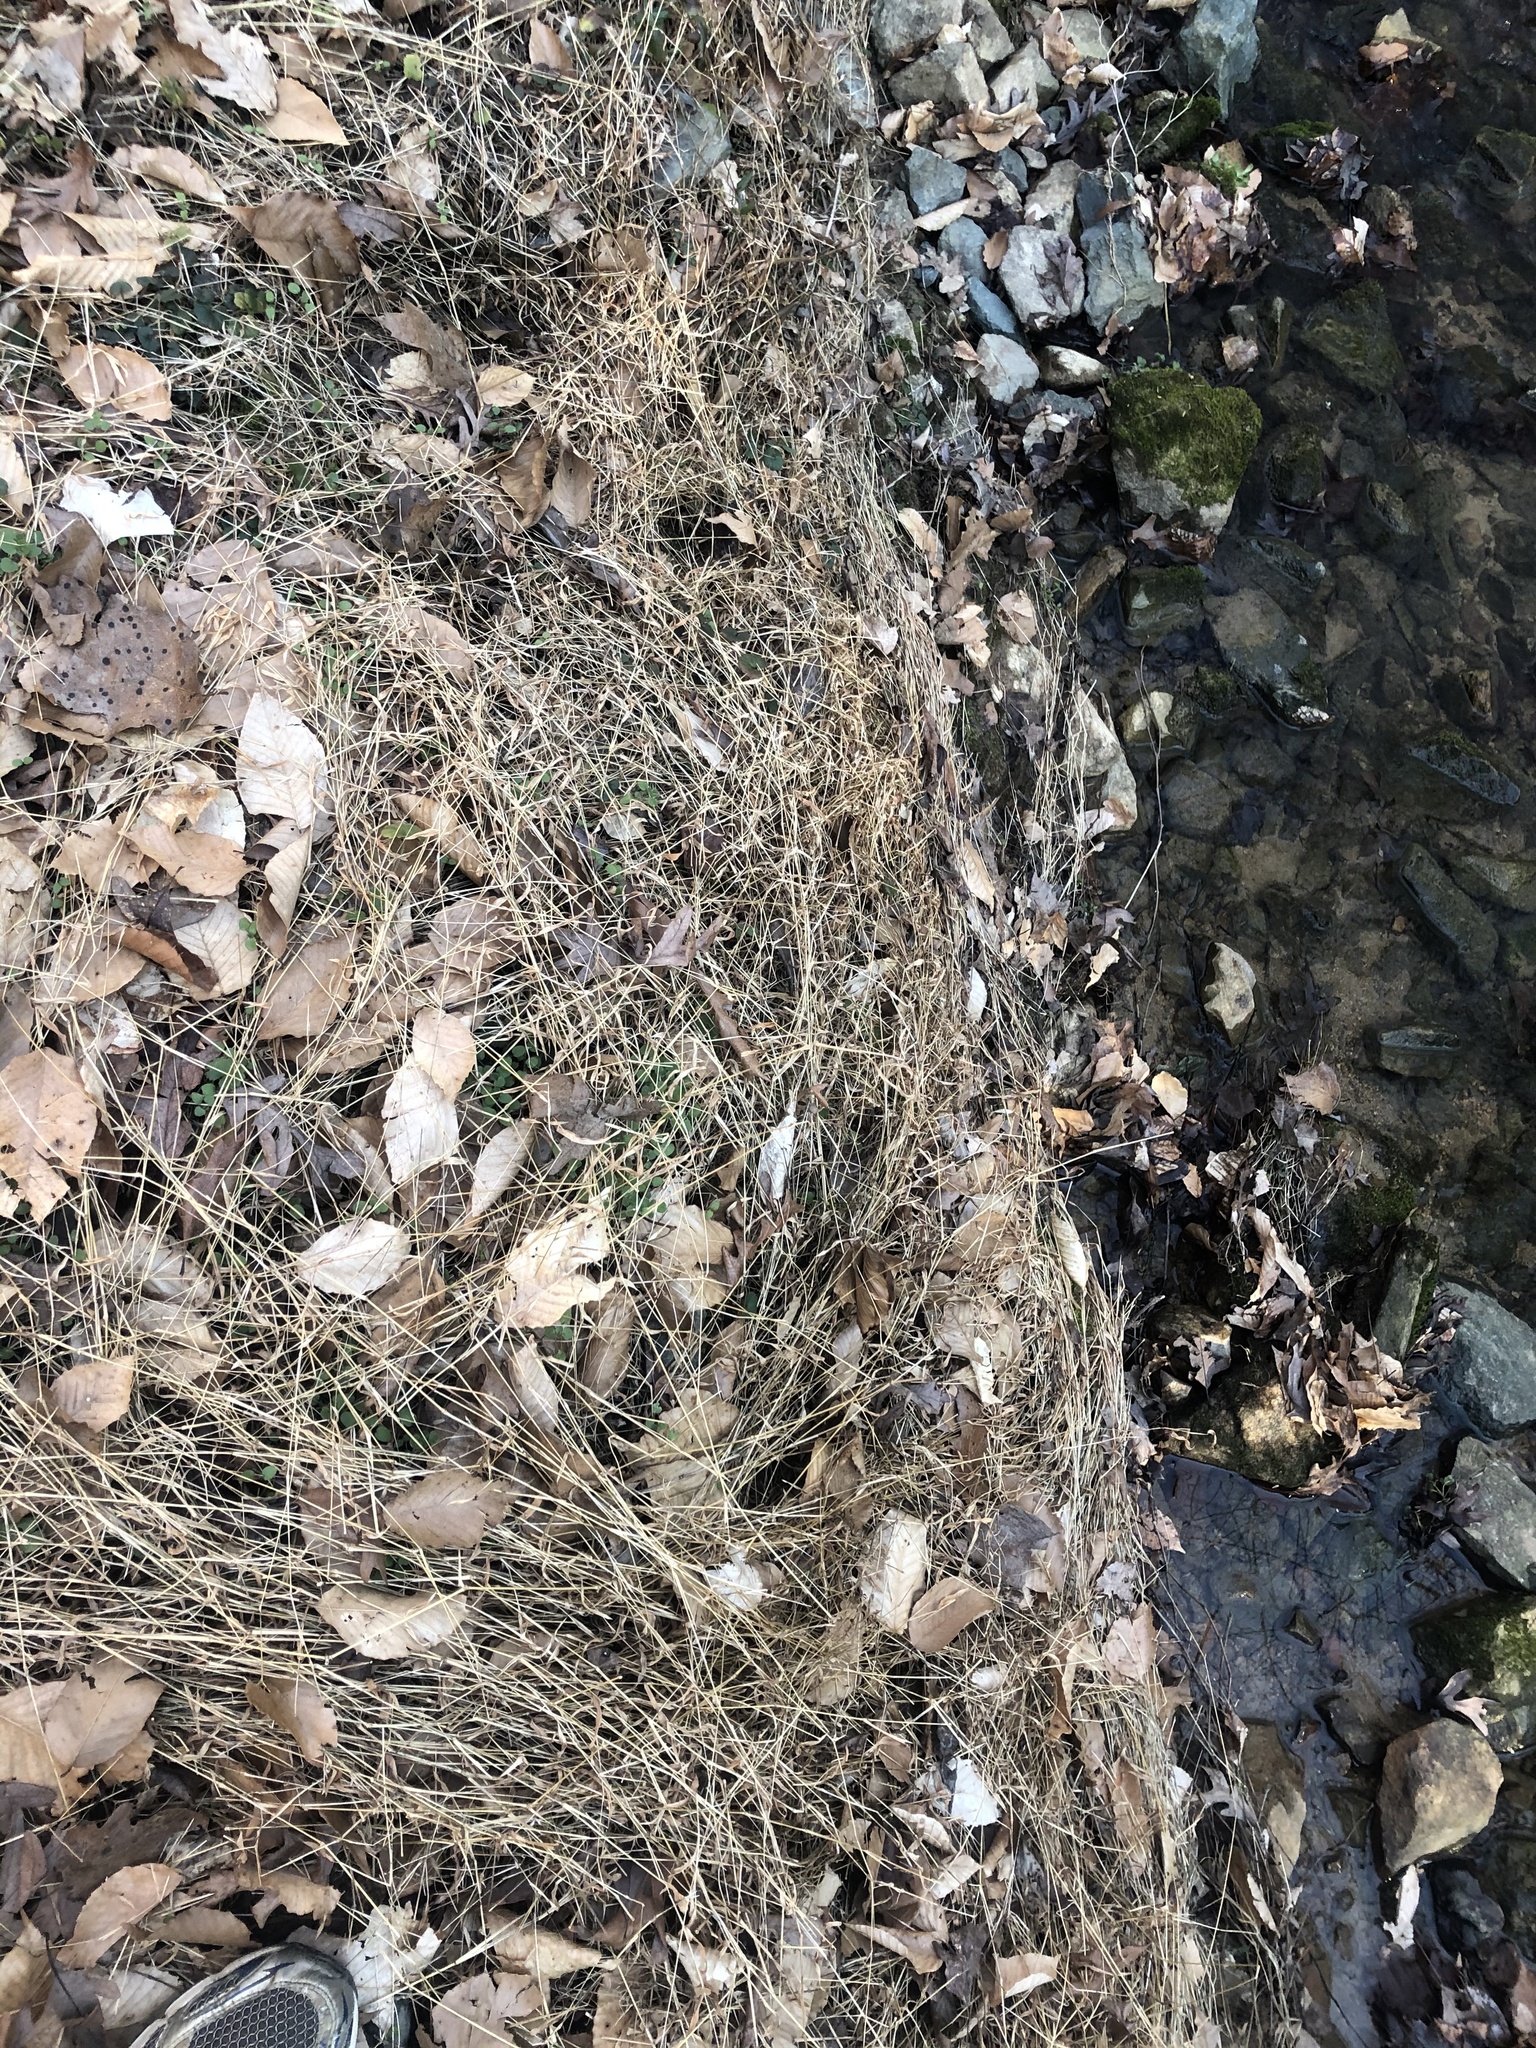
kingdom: Plantae
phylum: Tracheophyta
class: Liliopsida
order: Poales
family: Poaceae
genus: Microstegium
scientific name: Microstegium vimineum
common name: Japanese stiltgrass
